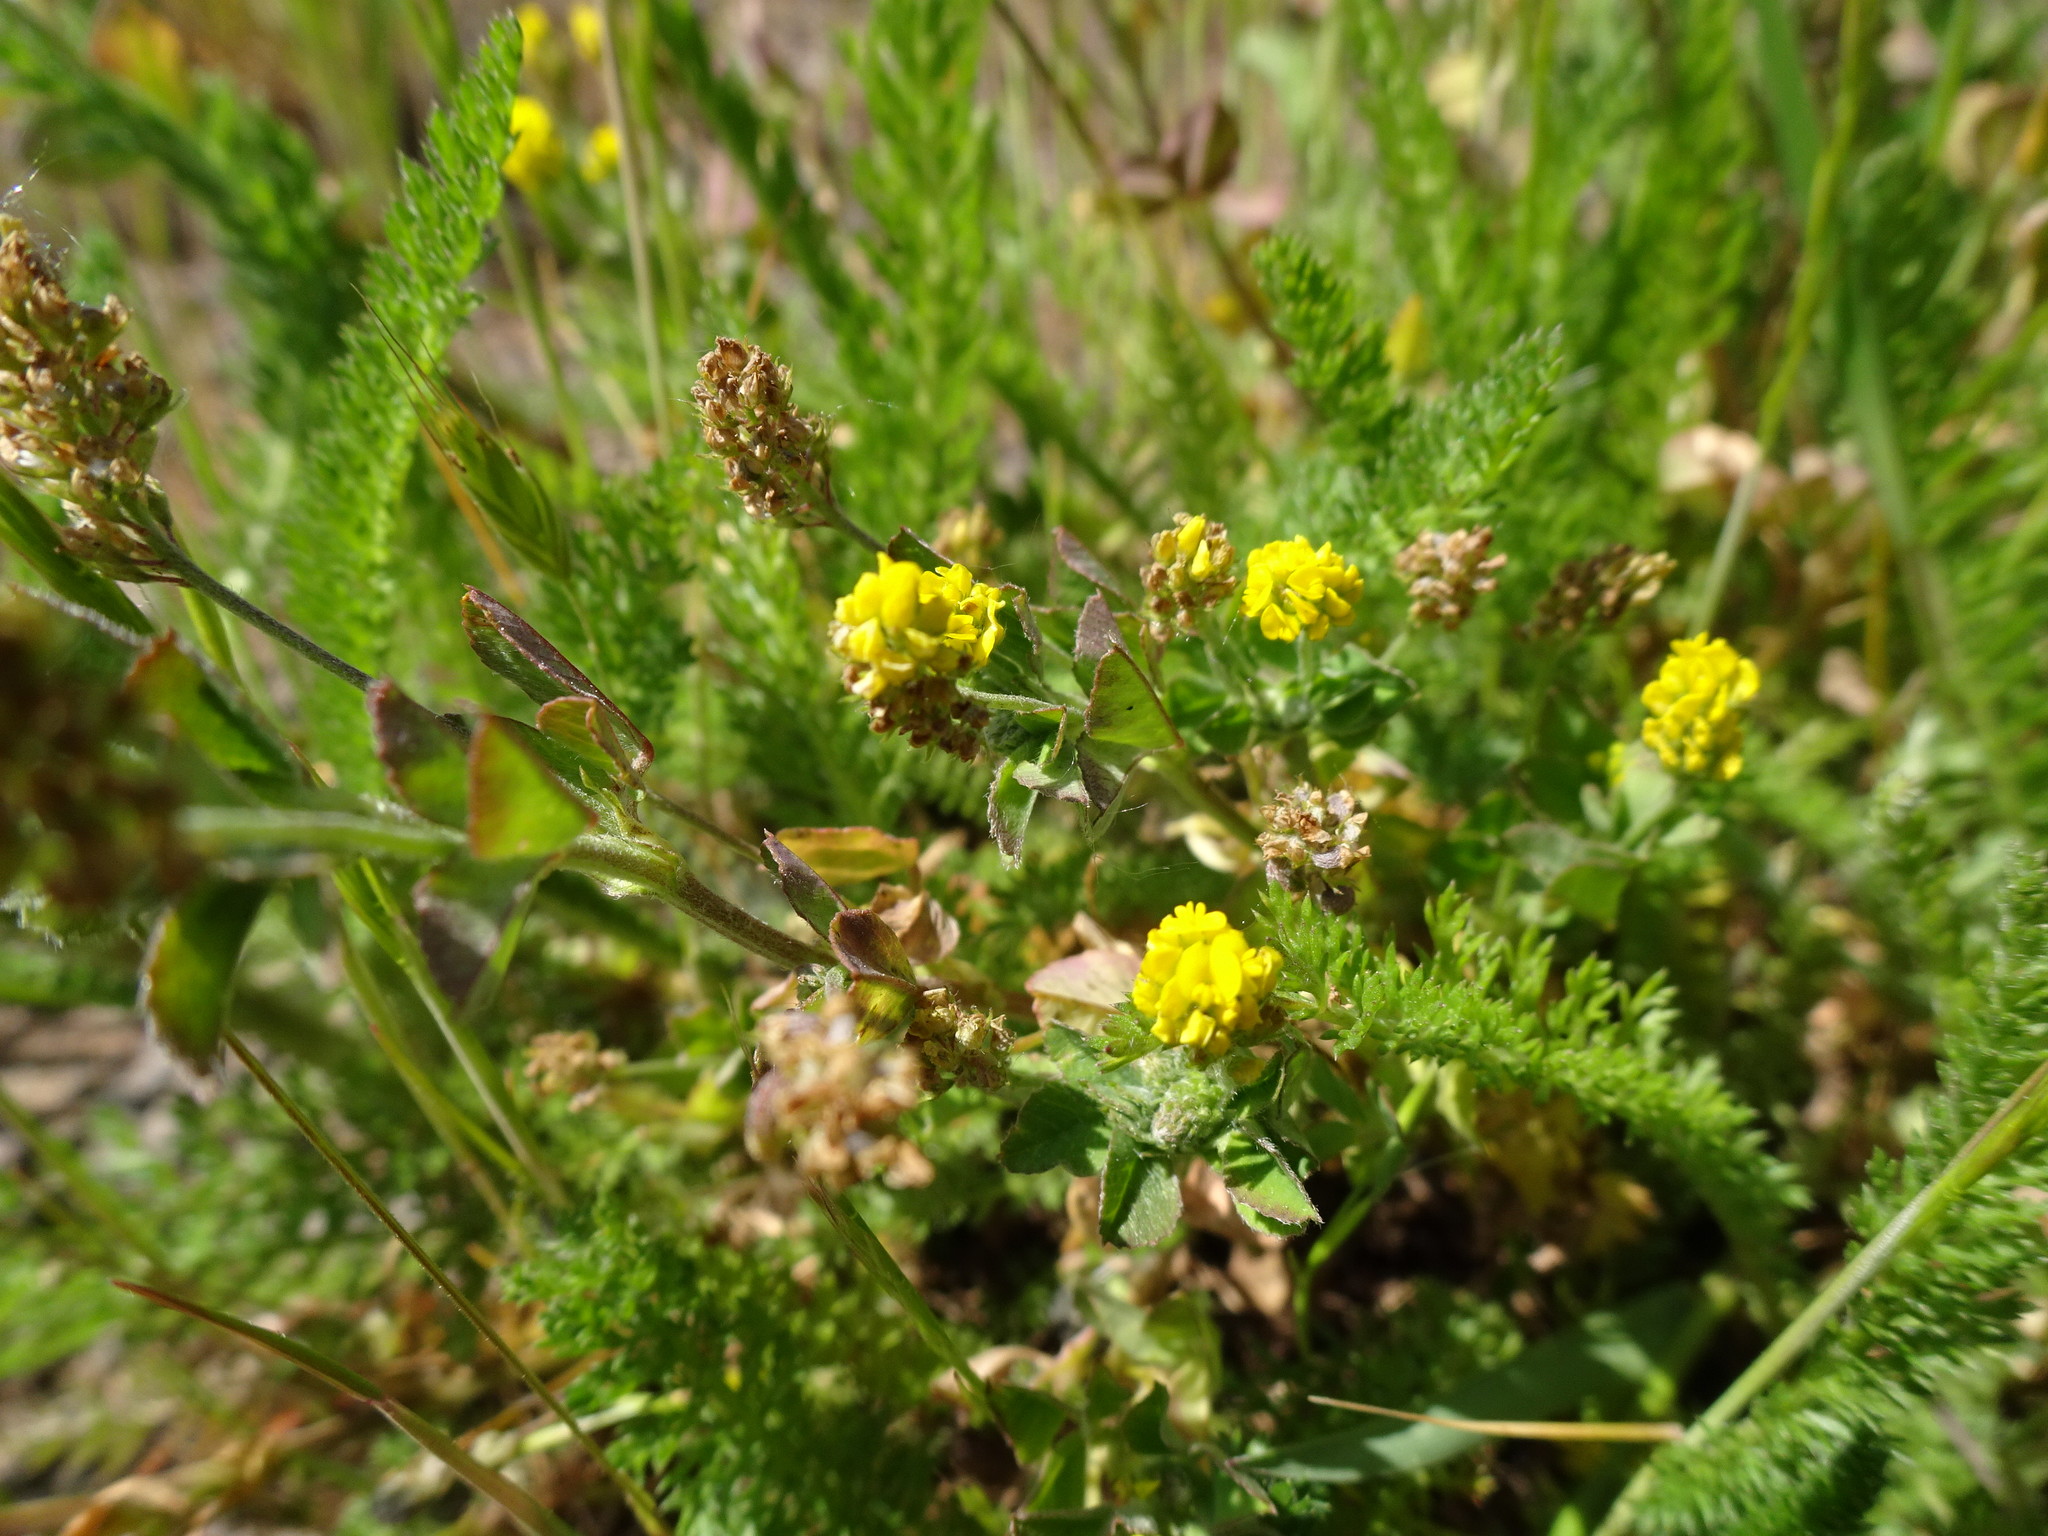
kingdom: Plantae
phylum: Tracheophyta
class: Magnoliopsida
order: Fabales
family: Fabaceae
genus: Medicago
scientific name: Medicago lupulina
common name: Black medick
